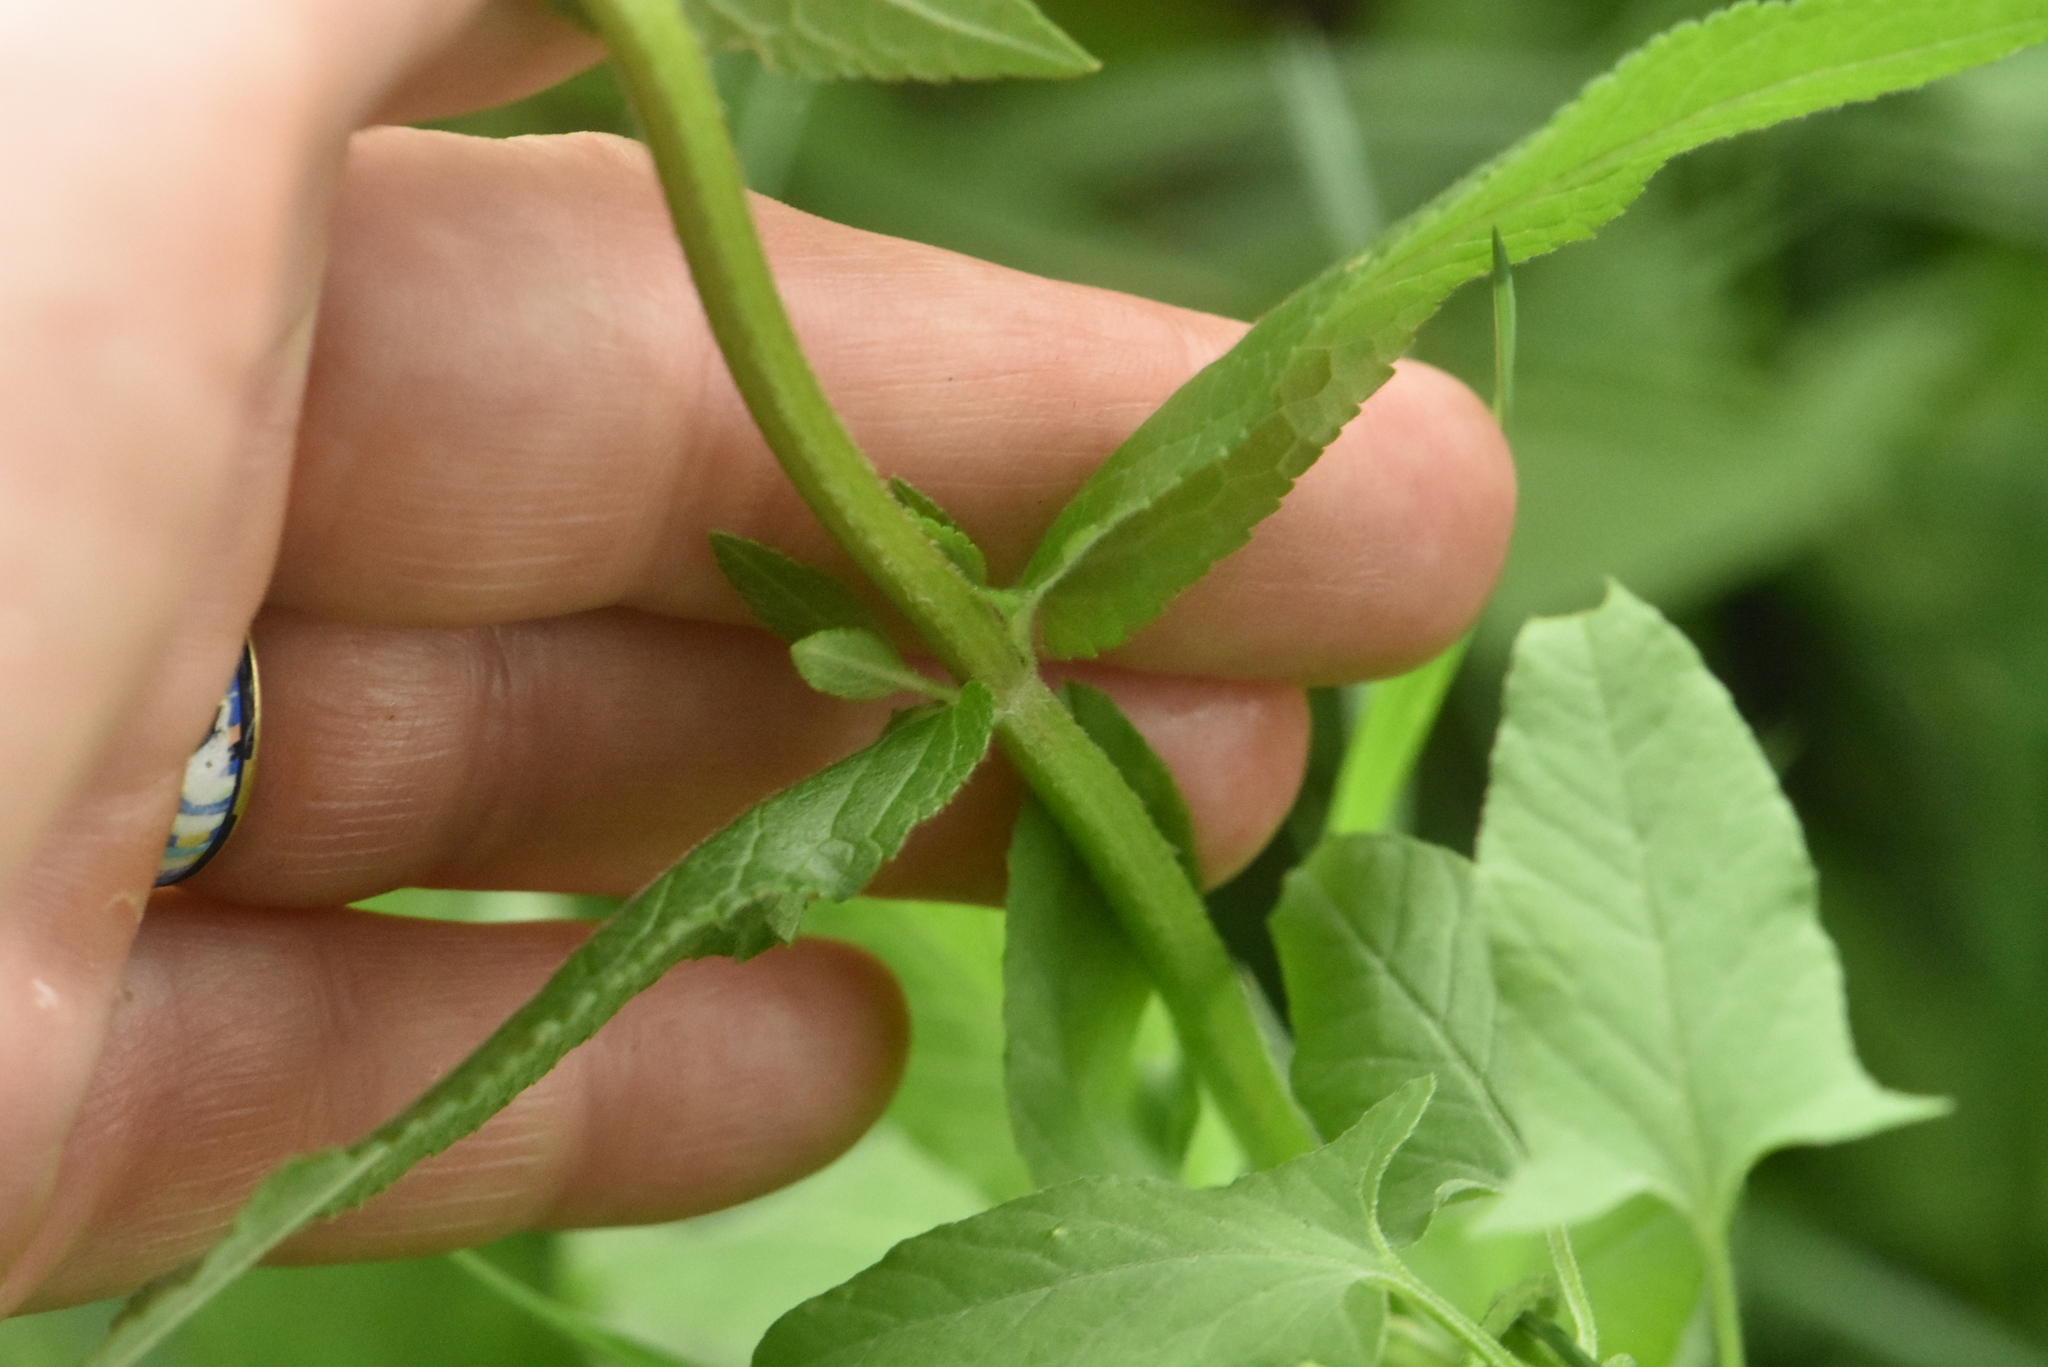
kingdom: Plantae
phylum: Tracheophyta
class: Magnoliopsida
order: Lamiales
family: Lamiaceae
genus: Stachys
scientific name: Stachys palustris
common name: Marsh woundwort
